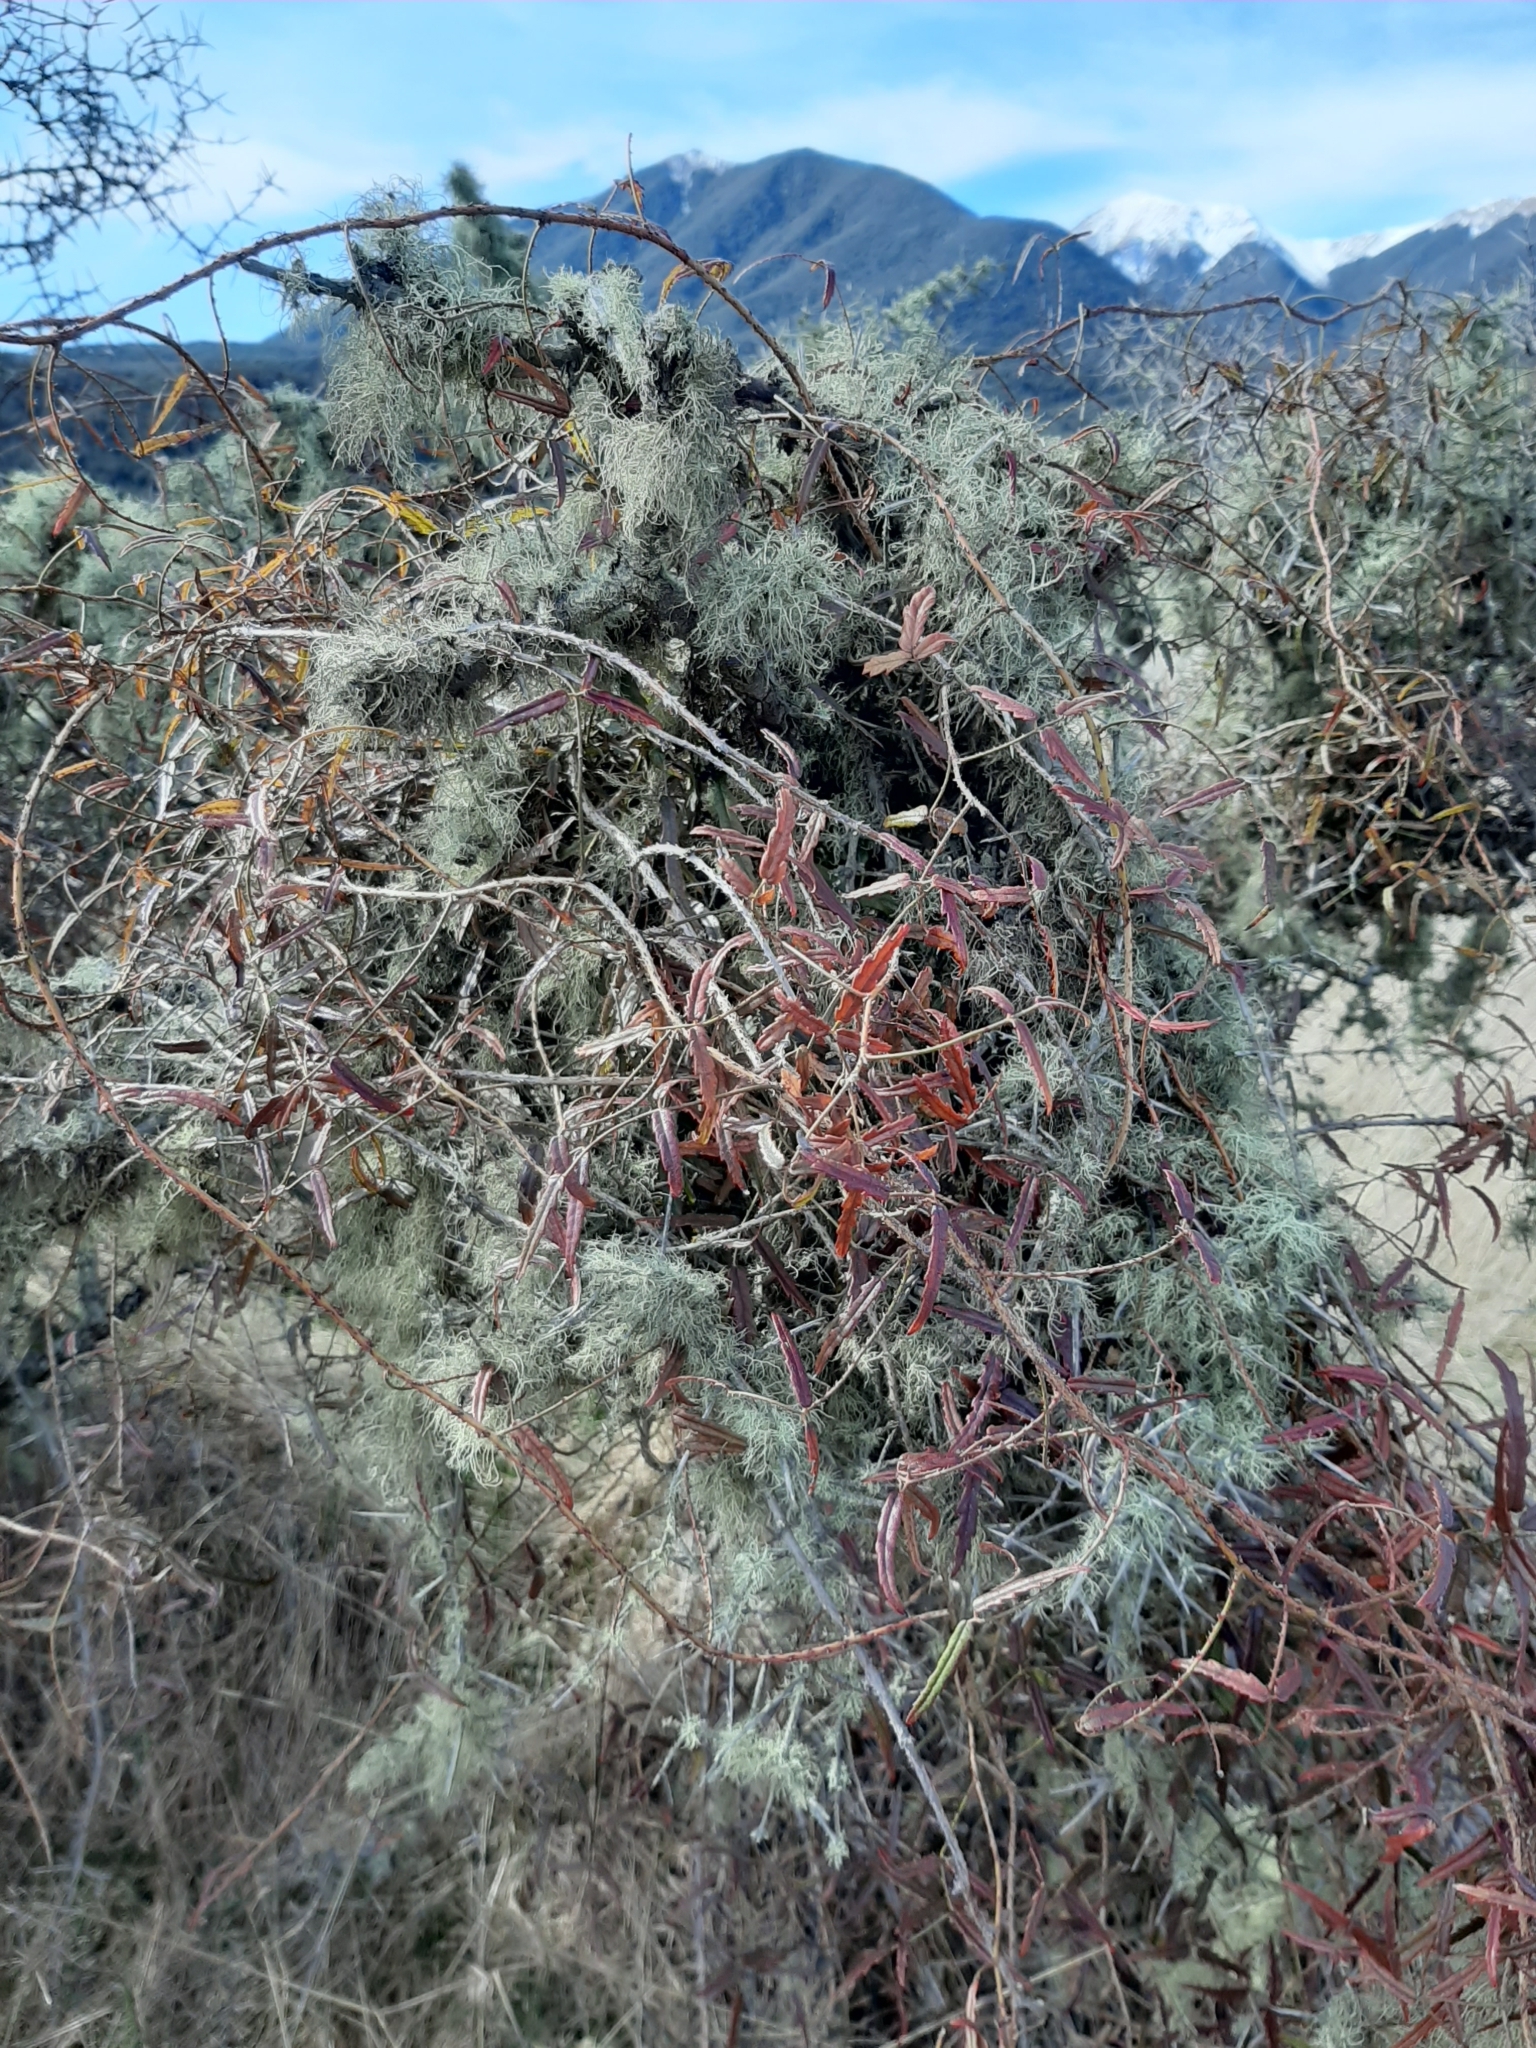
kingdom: Plantae
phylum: Tracheophyta
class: Magnoliopsida
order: Rosales
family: Rosaceae
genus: Rubus
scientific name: Rubus schmidelioides
